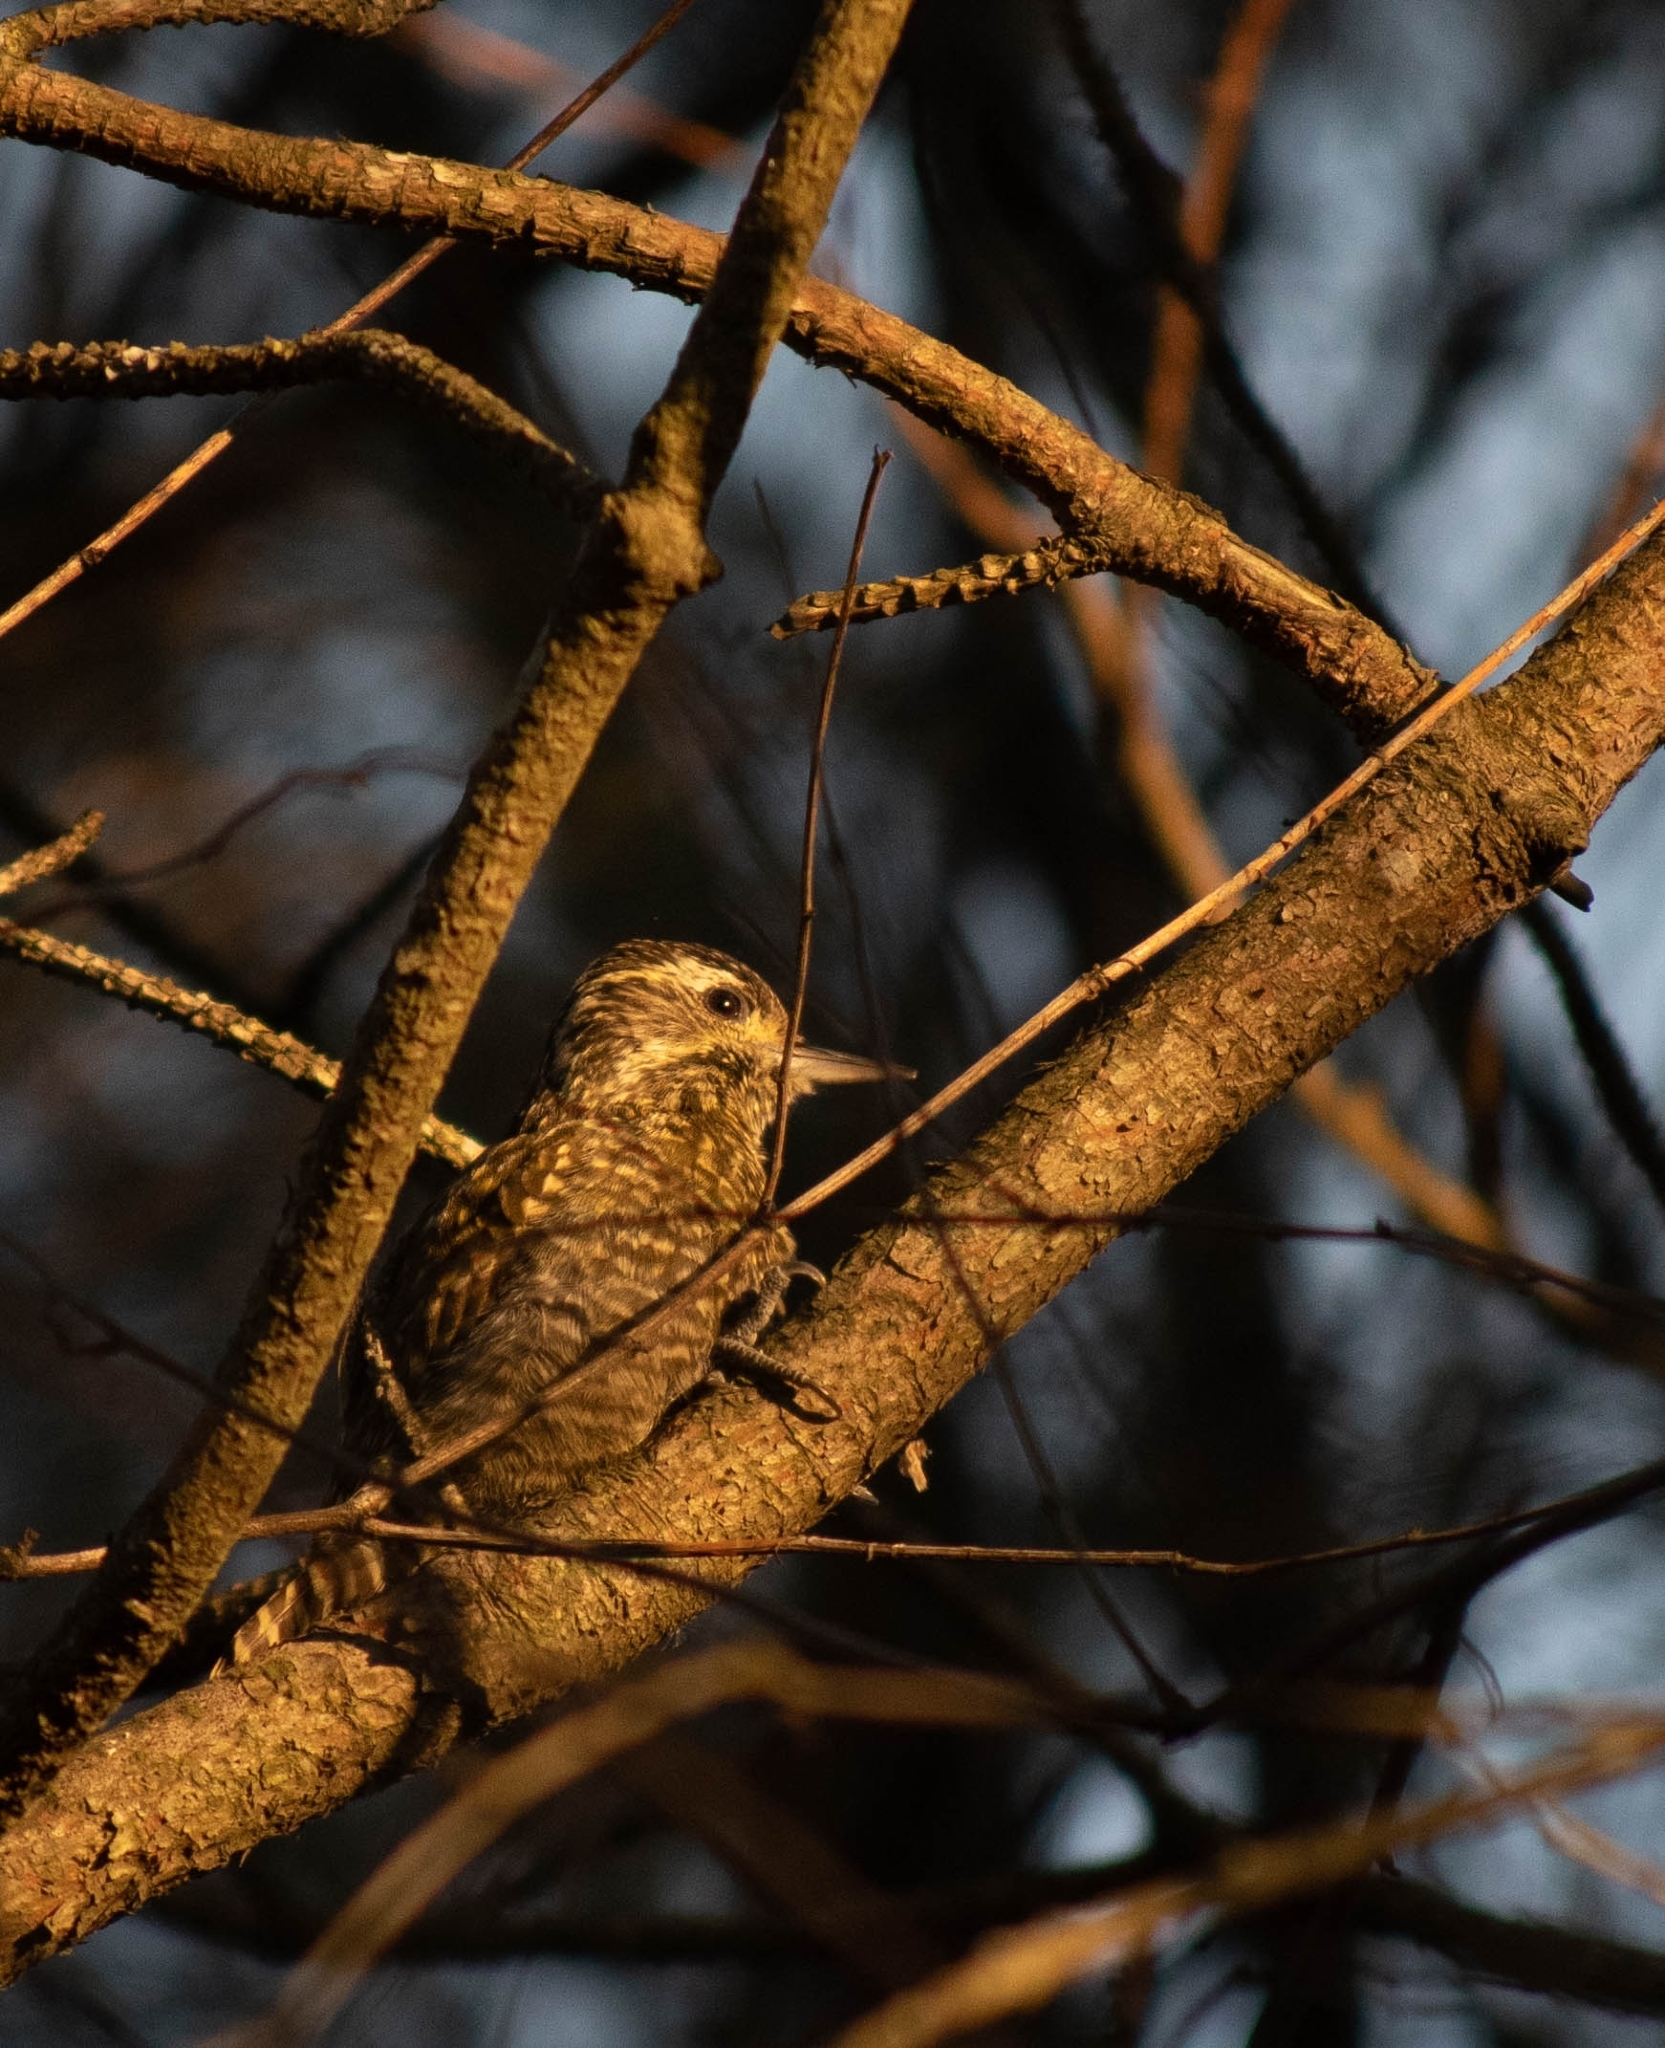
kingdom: Animalia
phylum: Chordata
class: Aves
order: Piciformes
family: Picidae
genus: Veniliornis
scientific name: Veniliornis spilogaster
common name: White-spotted woodpecker
